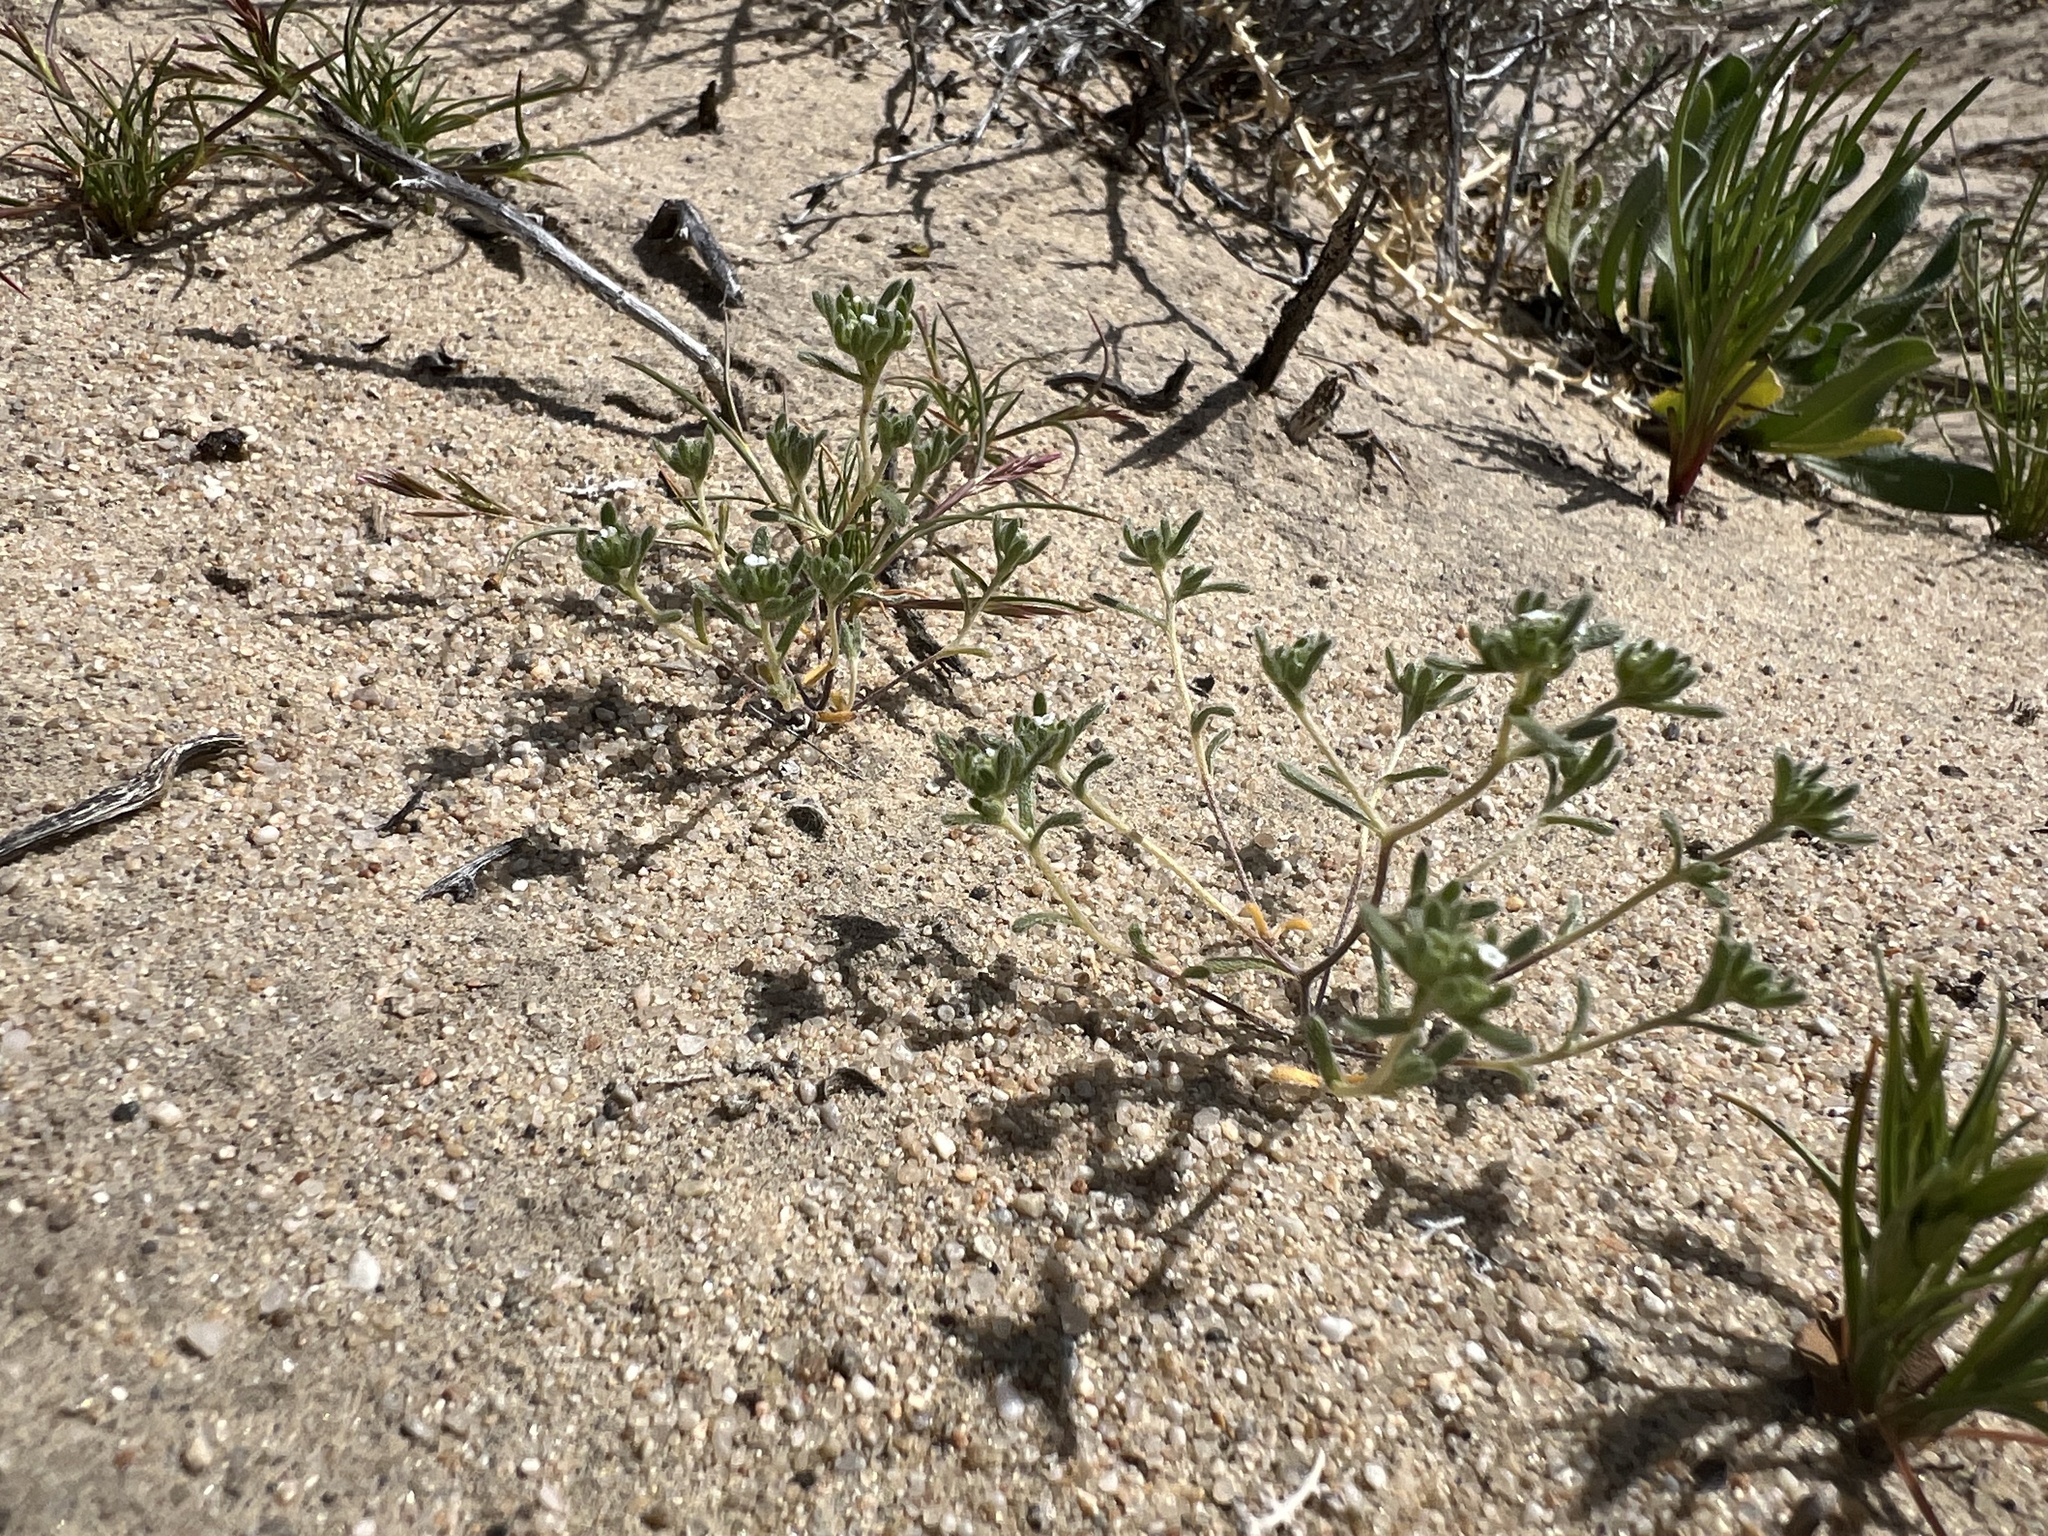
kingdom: Plantae
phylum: Tracheophyta
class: Magnoliopsida
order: Boraginales
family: Boraginaceae
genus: Eremocarya
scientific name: Eremocarya micrantha
